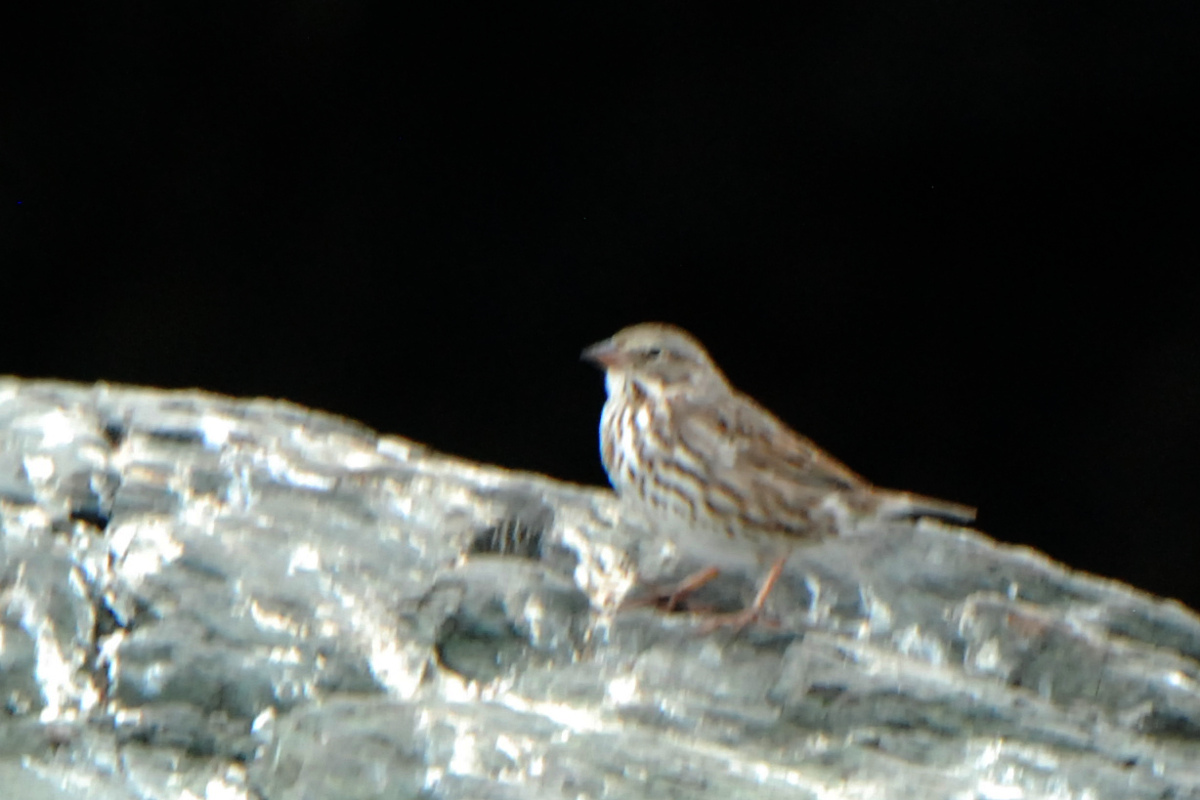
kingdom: Animalia
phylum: Chordata
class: Aves
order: Passeriformes
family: Passerellidae
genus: Passerculus
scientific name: Passerculus sandwichensis
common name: Savannah sparrow
